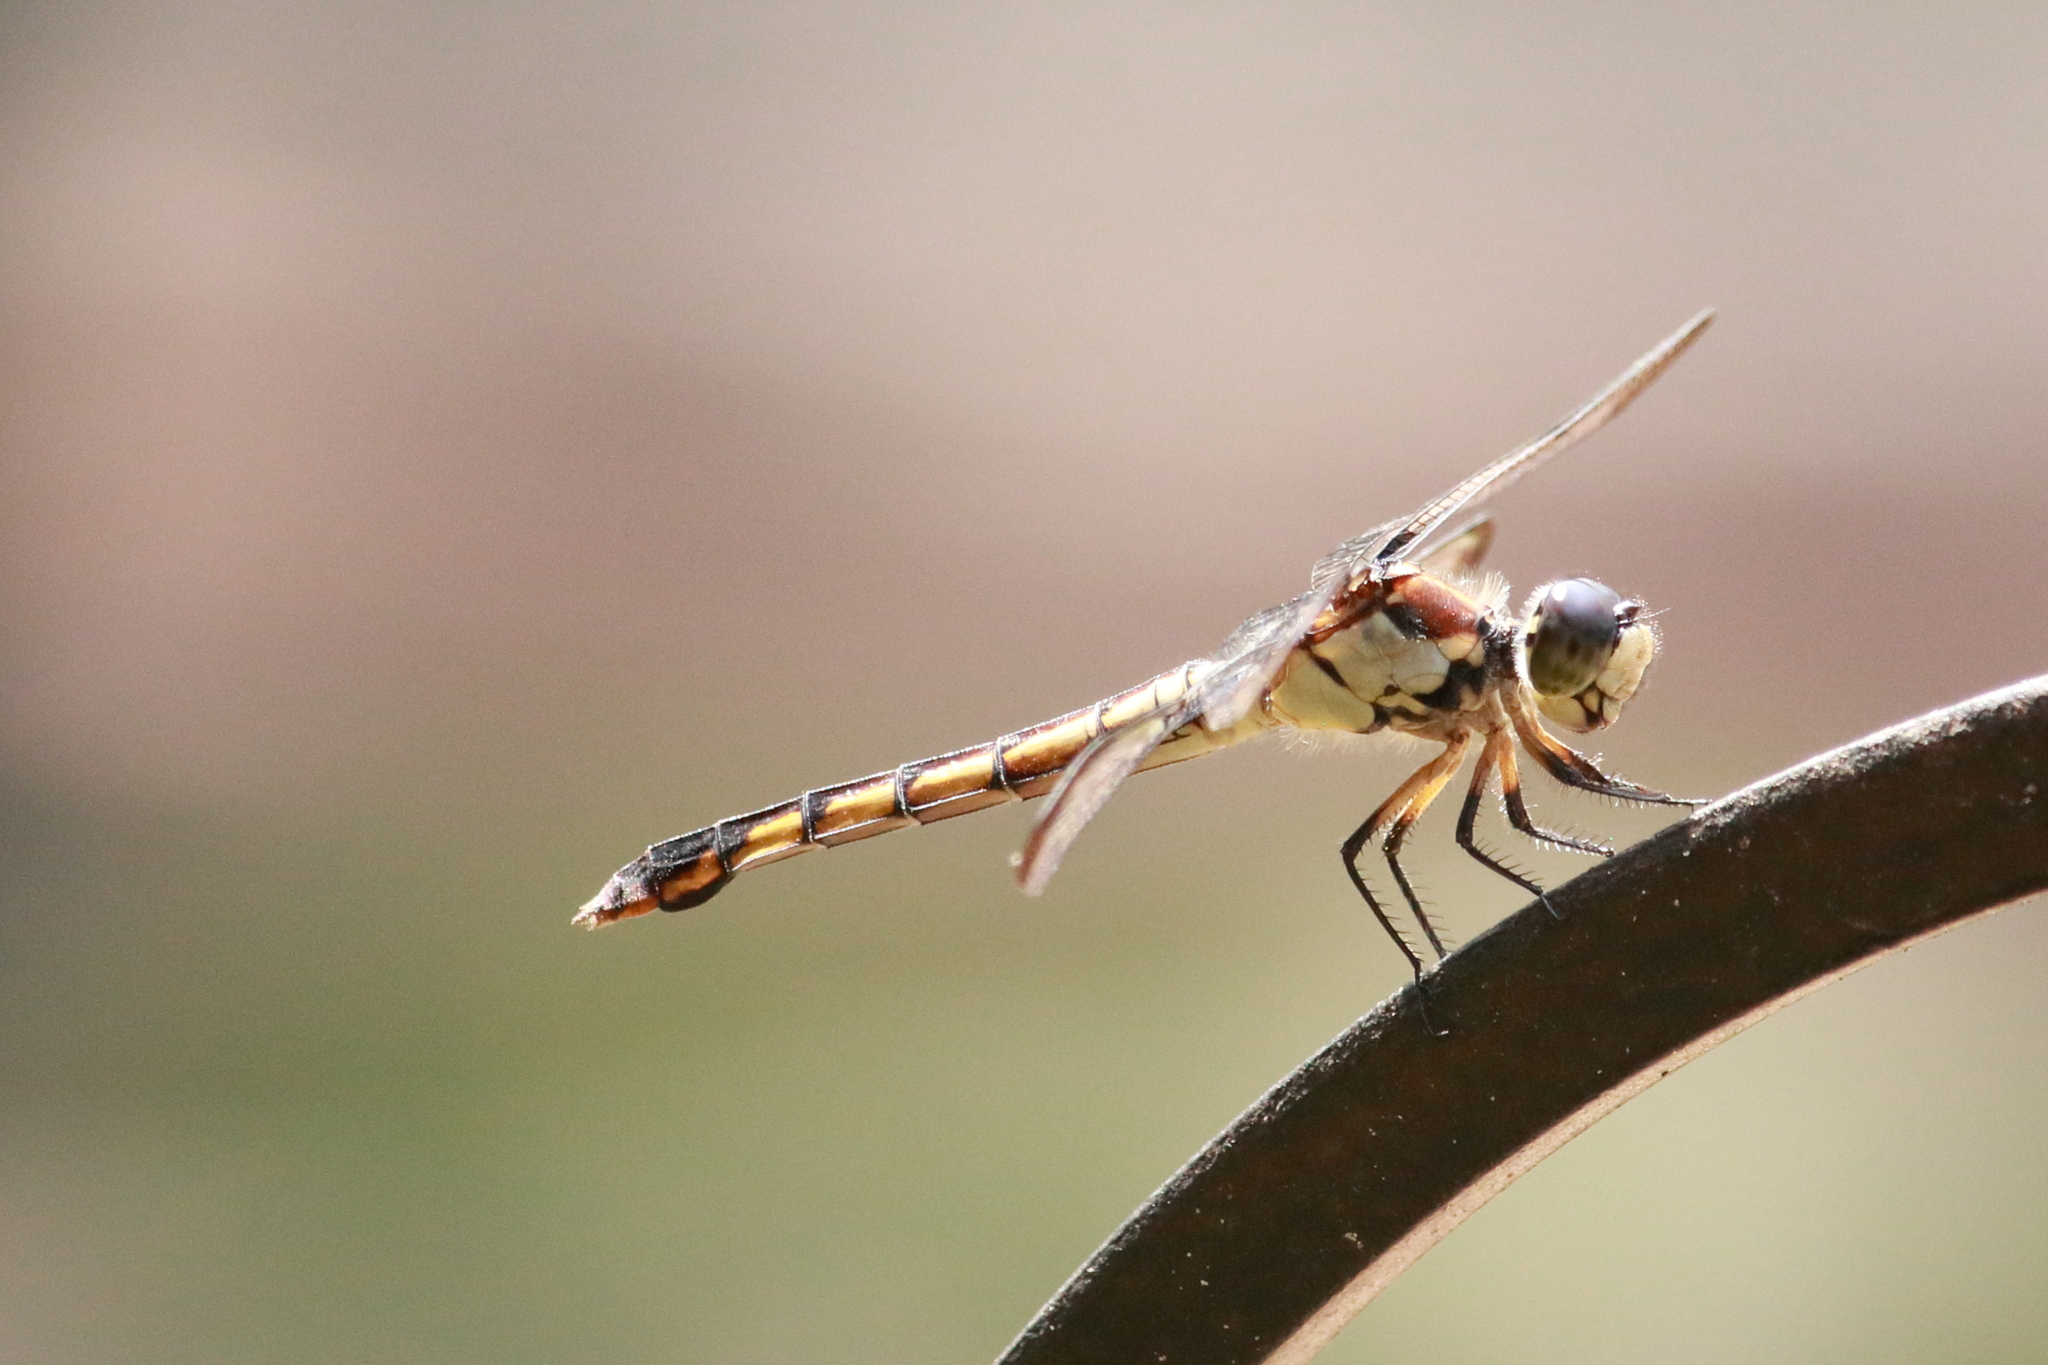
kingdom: Animalia
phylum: Arthropoda
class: Insecta
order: Odonata
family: Libellulidae
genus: Libellula
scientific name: Libellula vibrans
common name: Great blue skimmer
